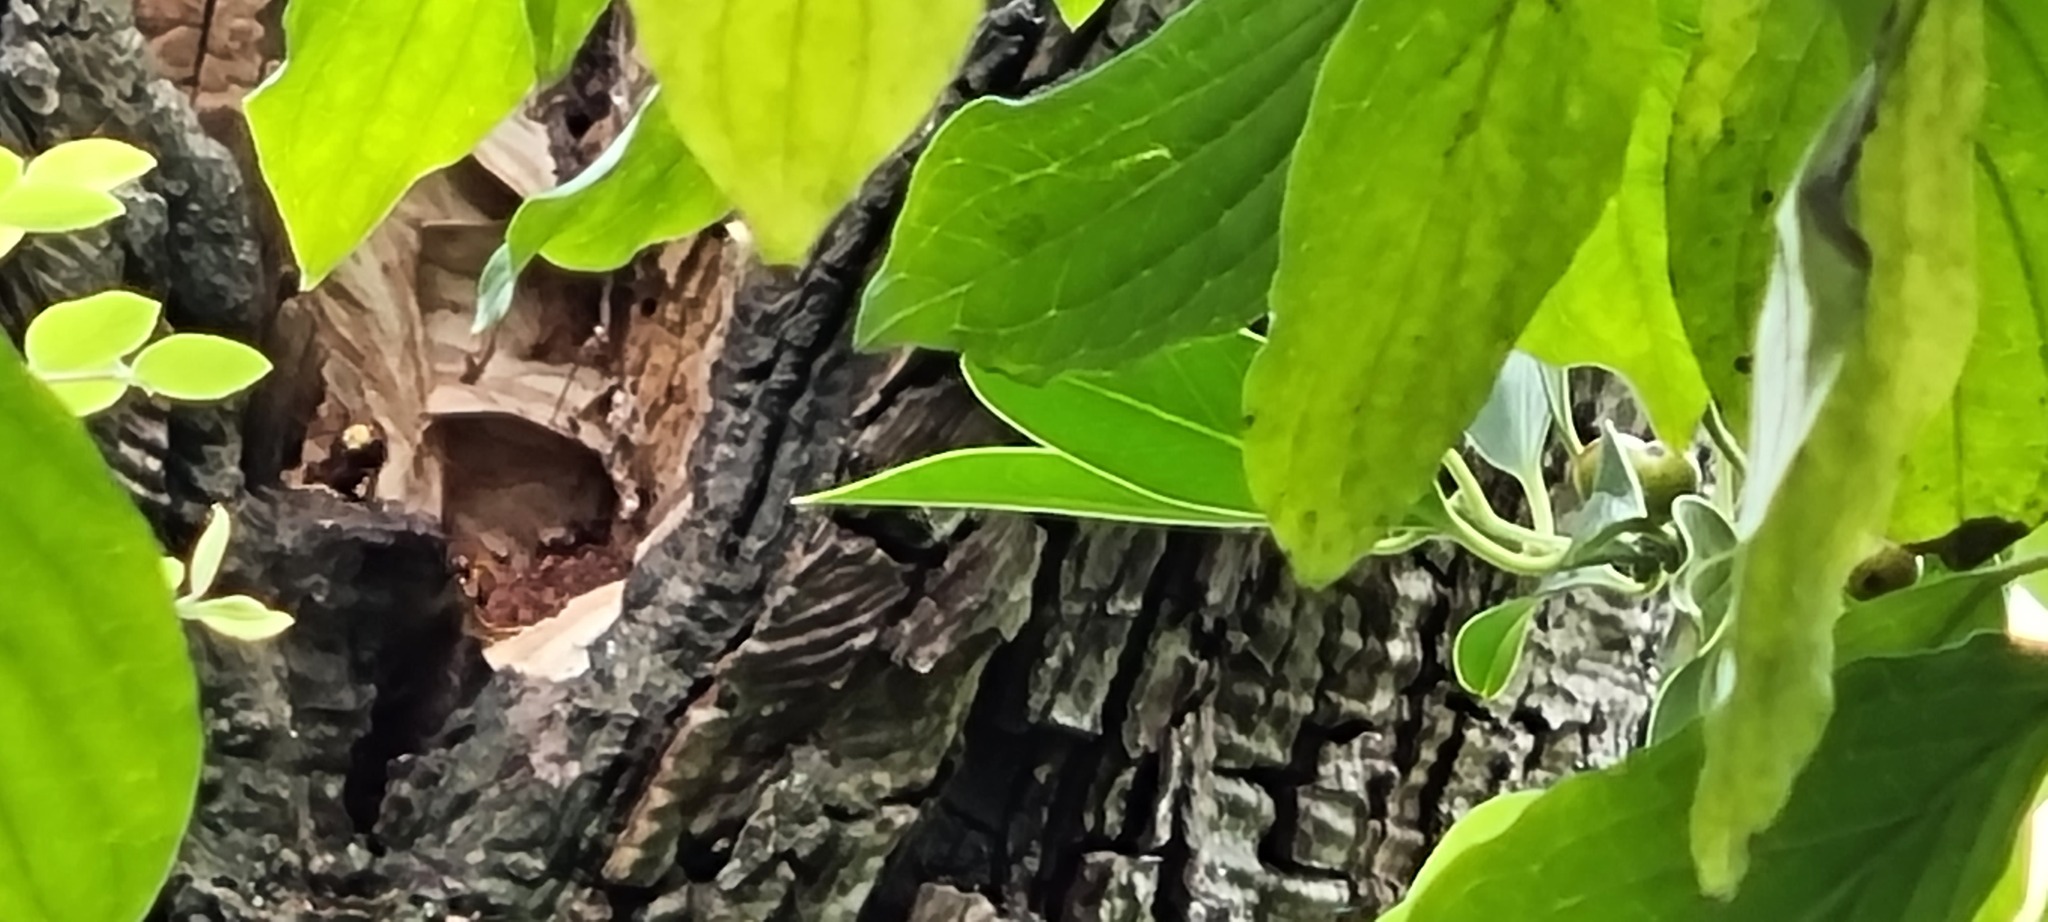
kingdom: Animalia
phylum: Arthropoda
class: Insecta
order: Hymenoptera
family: Vespidae
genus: Vespa
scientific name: Vespa crabro
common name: Hornet
